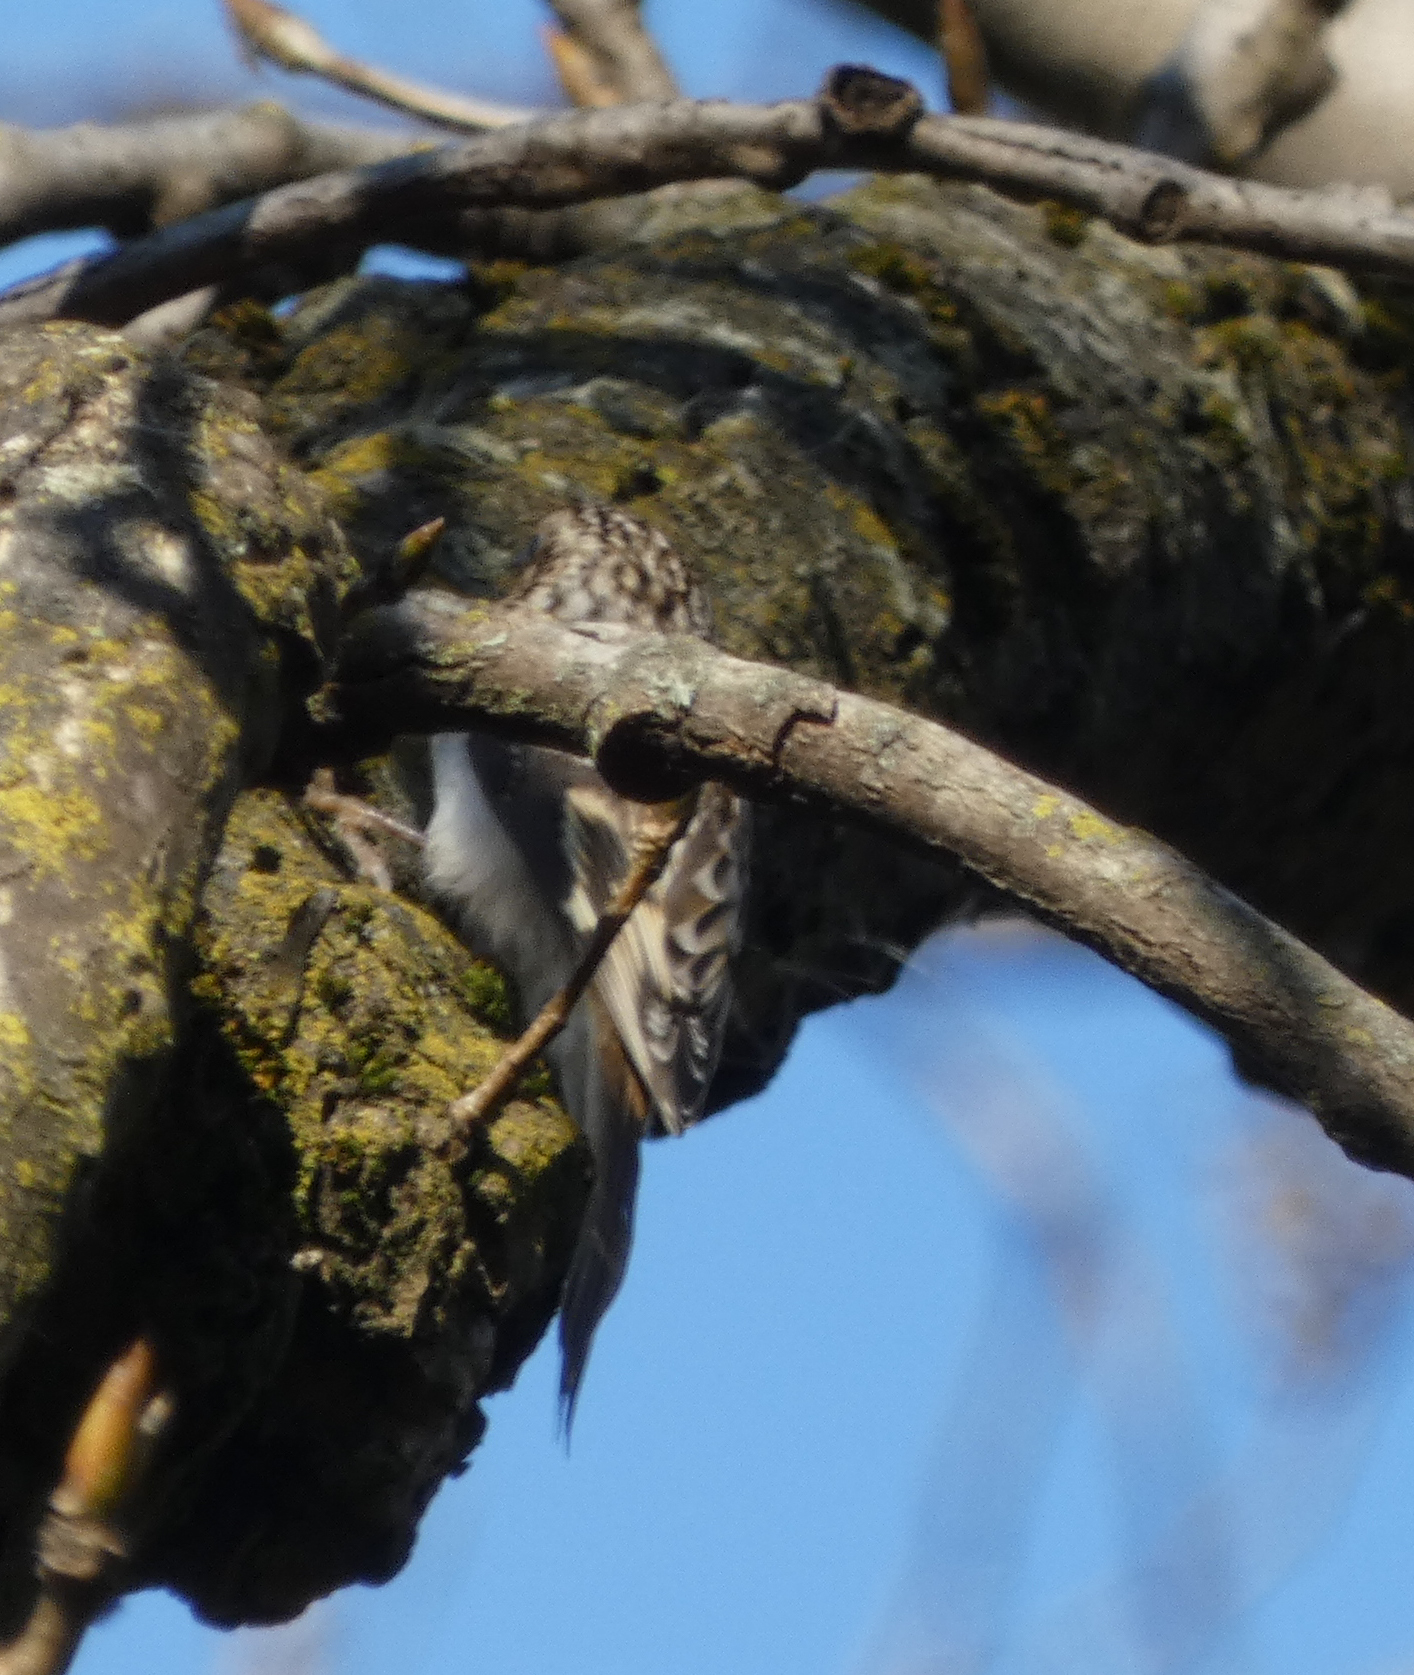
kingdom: Animalia
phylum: Chordata
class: Aves
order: Passeriformes
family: Certhiidae
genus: Certhia
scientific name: Certhia americana
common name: Brown creeper
